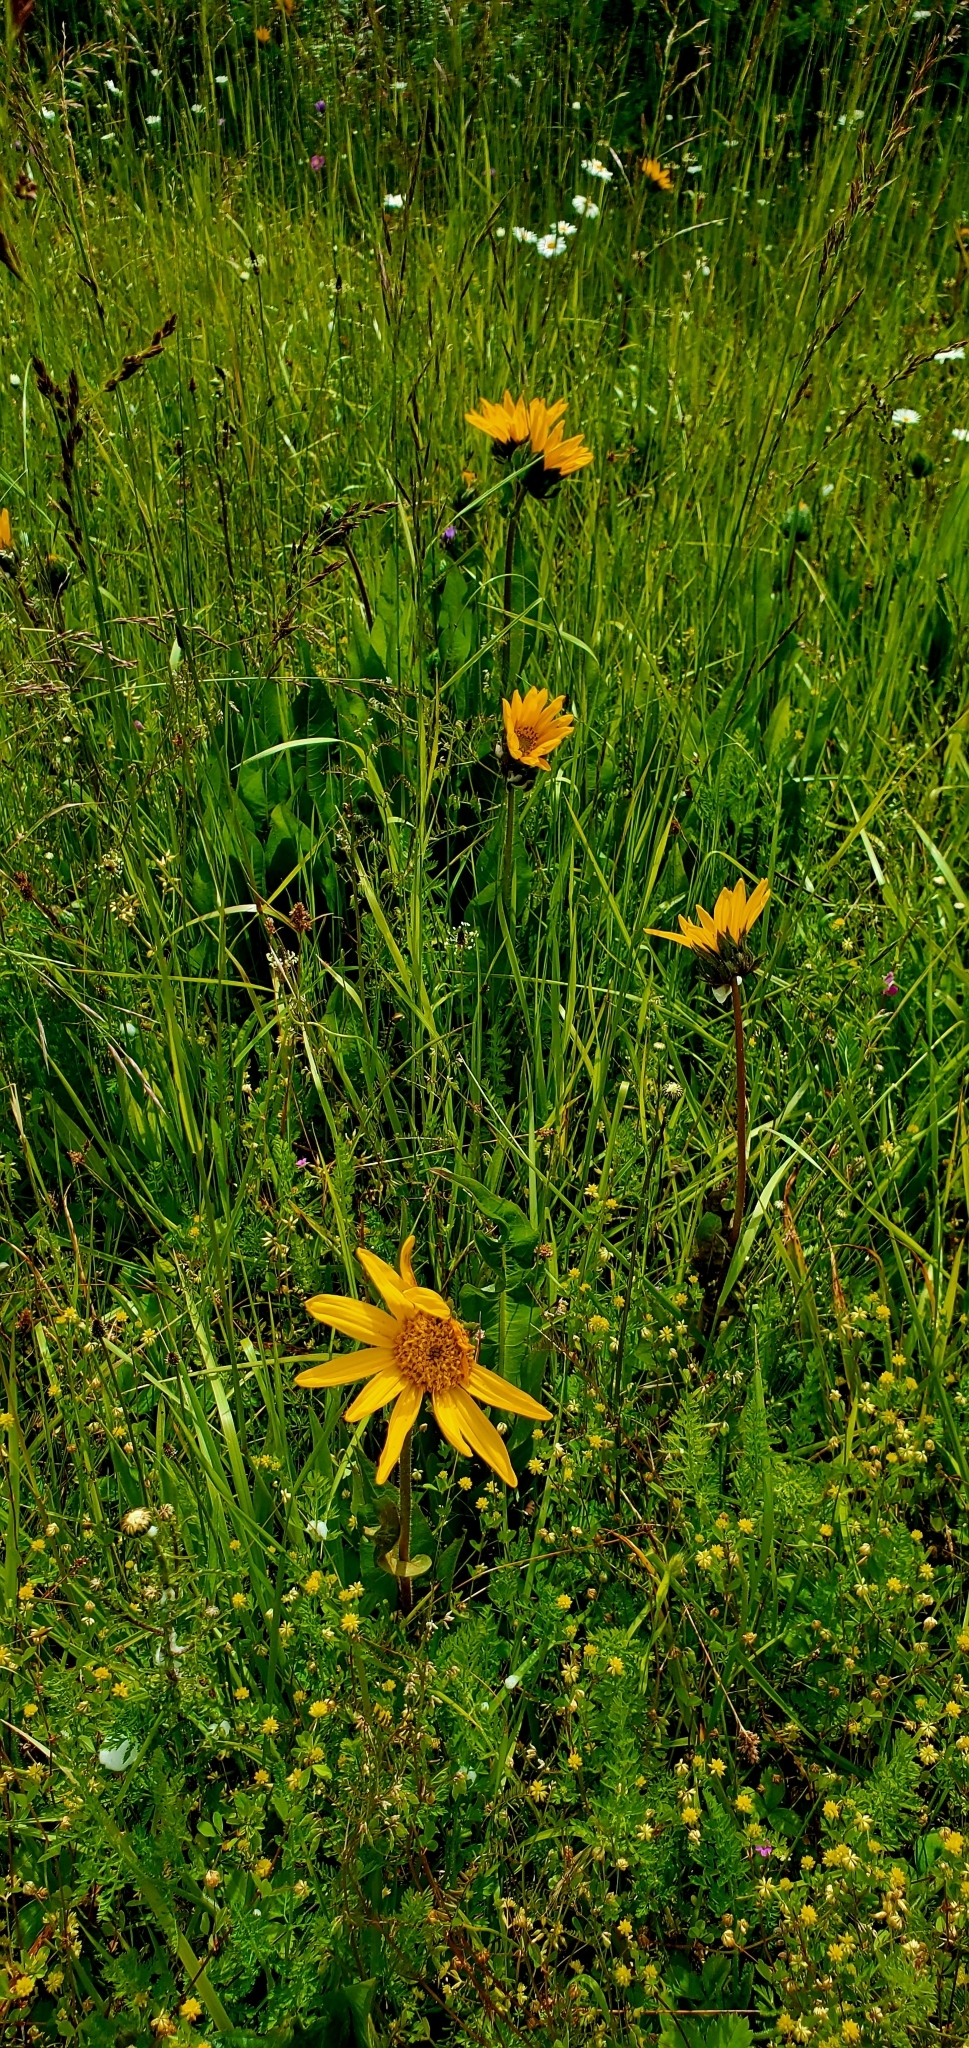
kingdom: Plantae
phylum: Tracheophyta
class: Magnoliopsida
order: Asterales
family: Asteraceae
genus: Wyethia
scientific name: Wyethia angustifolia
